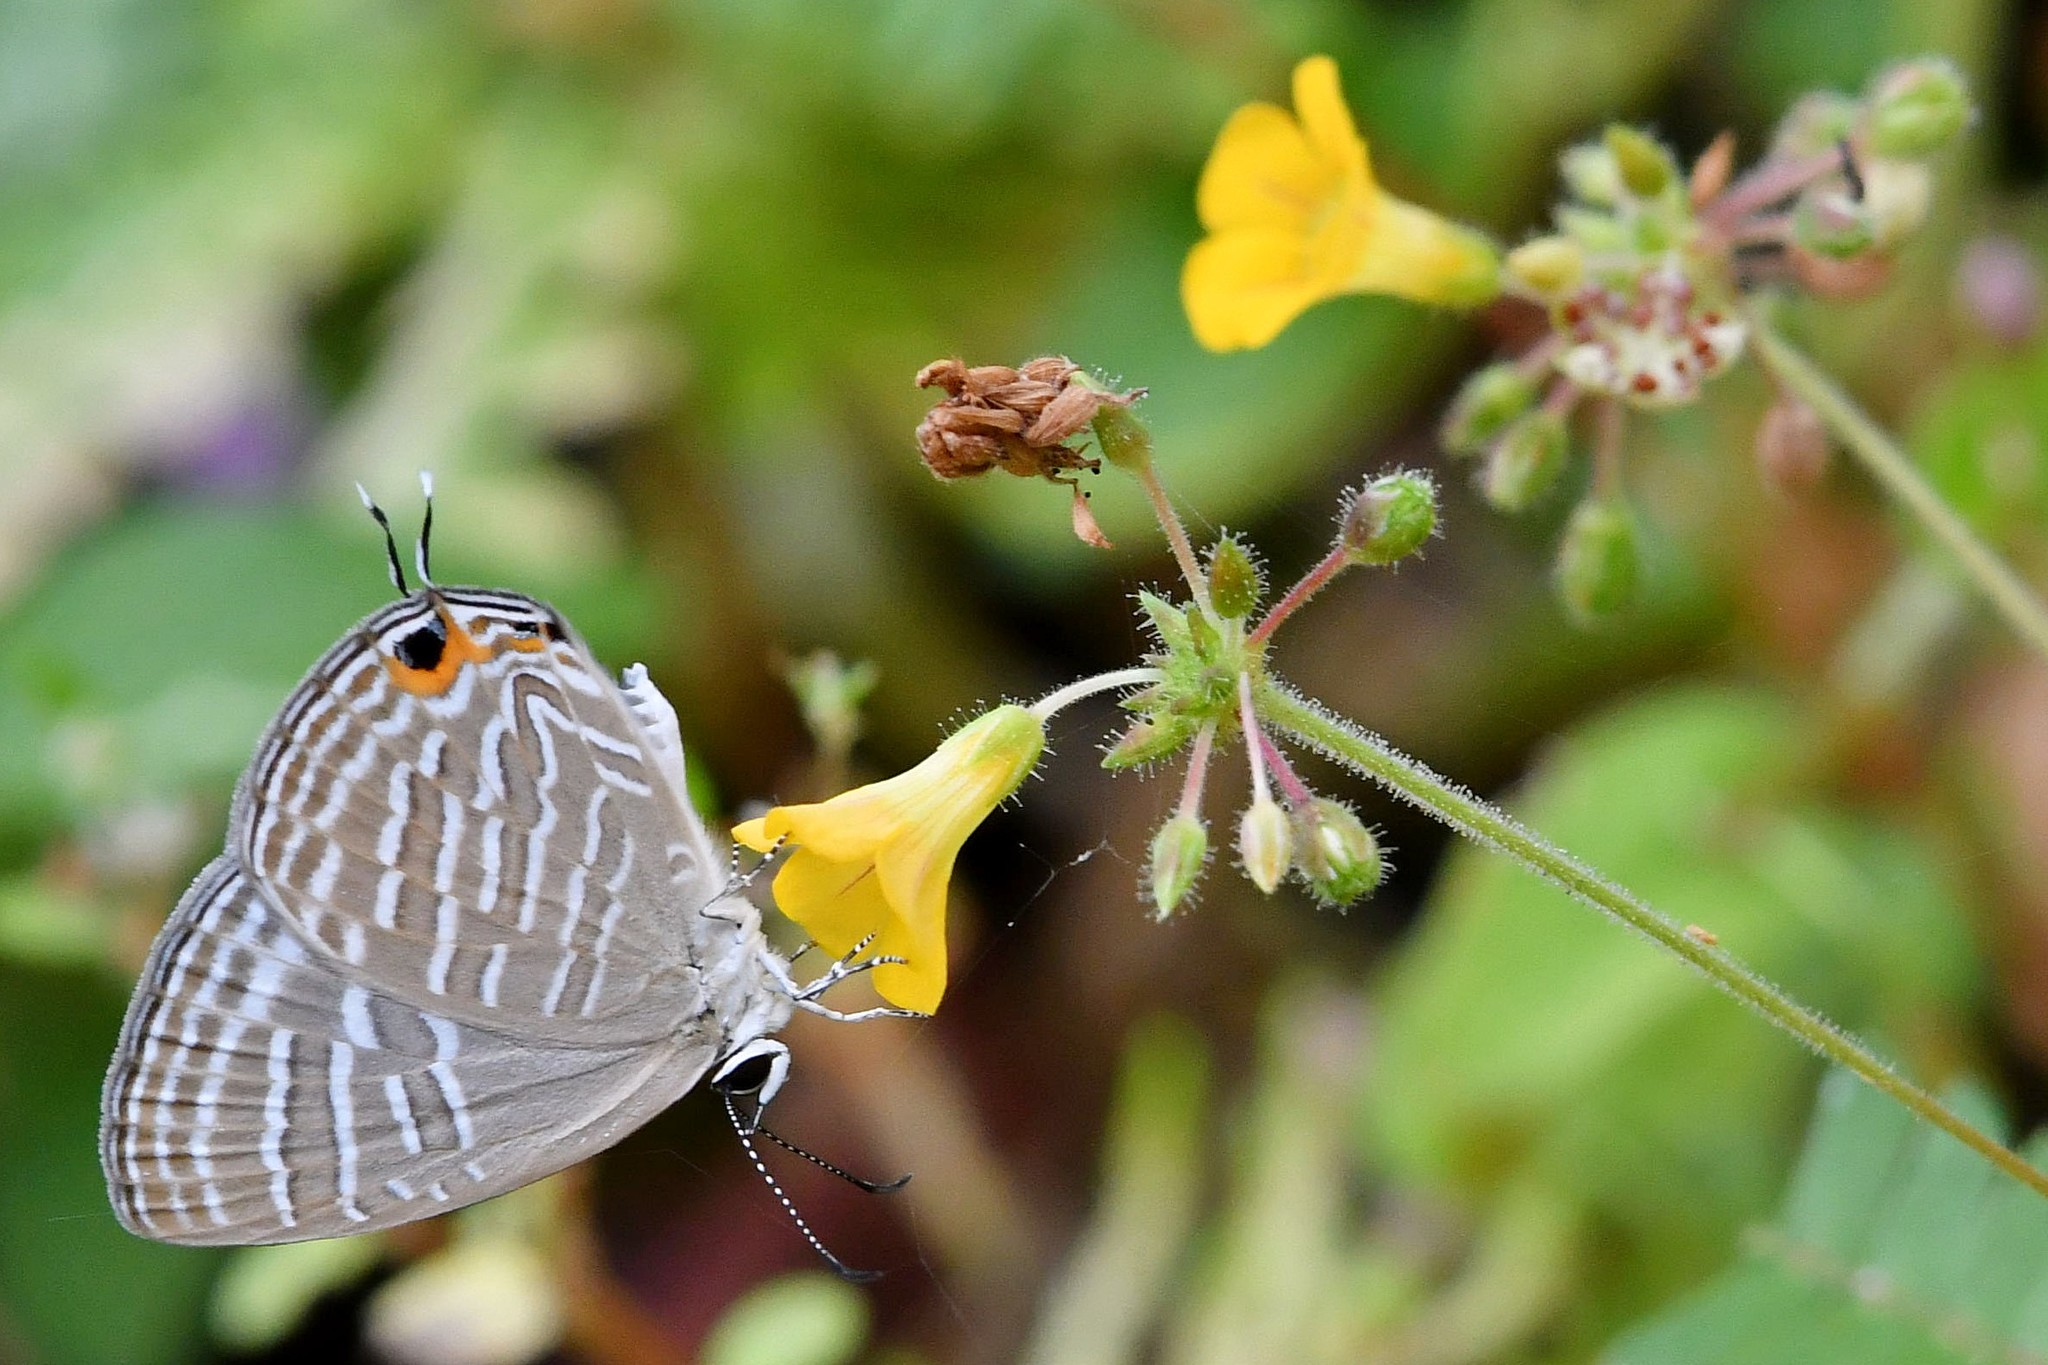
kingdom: Animalia
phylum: Arthropoda
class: Insecta
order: Lepidoptera
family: Lycaenidae
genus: Jamides
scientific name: Jamides celeno
